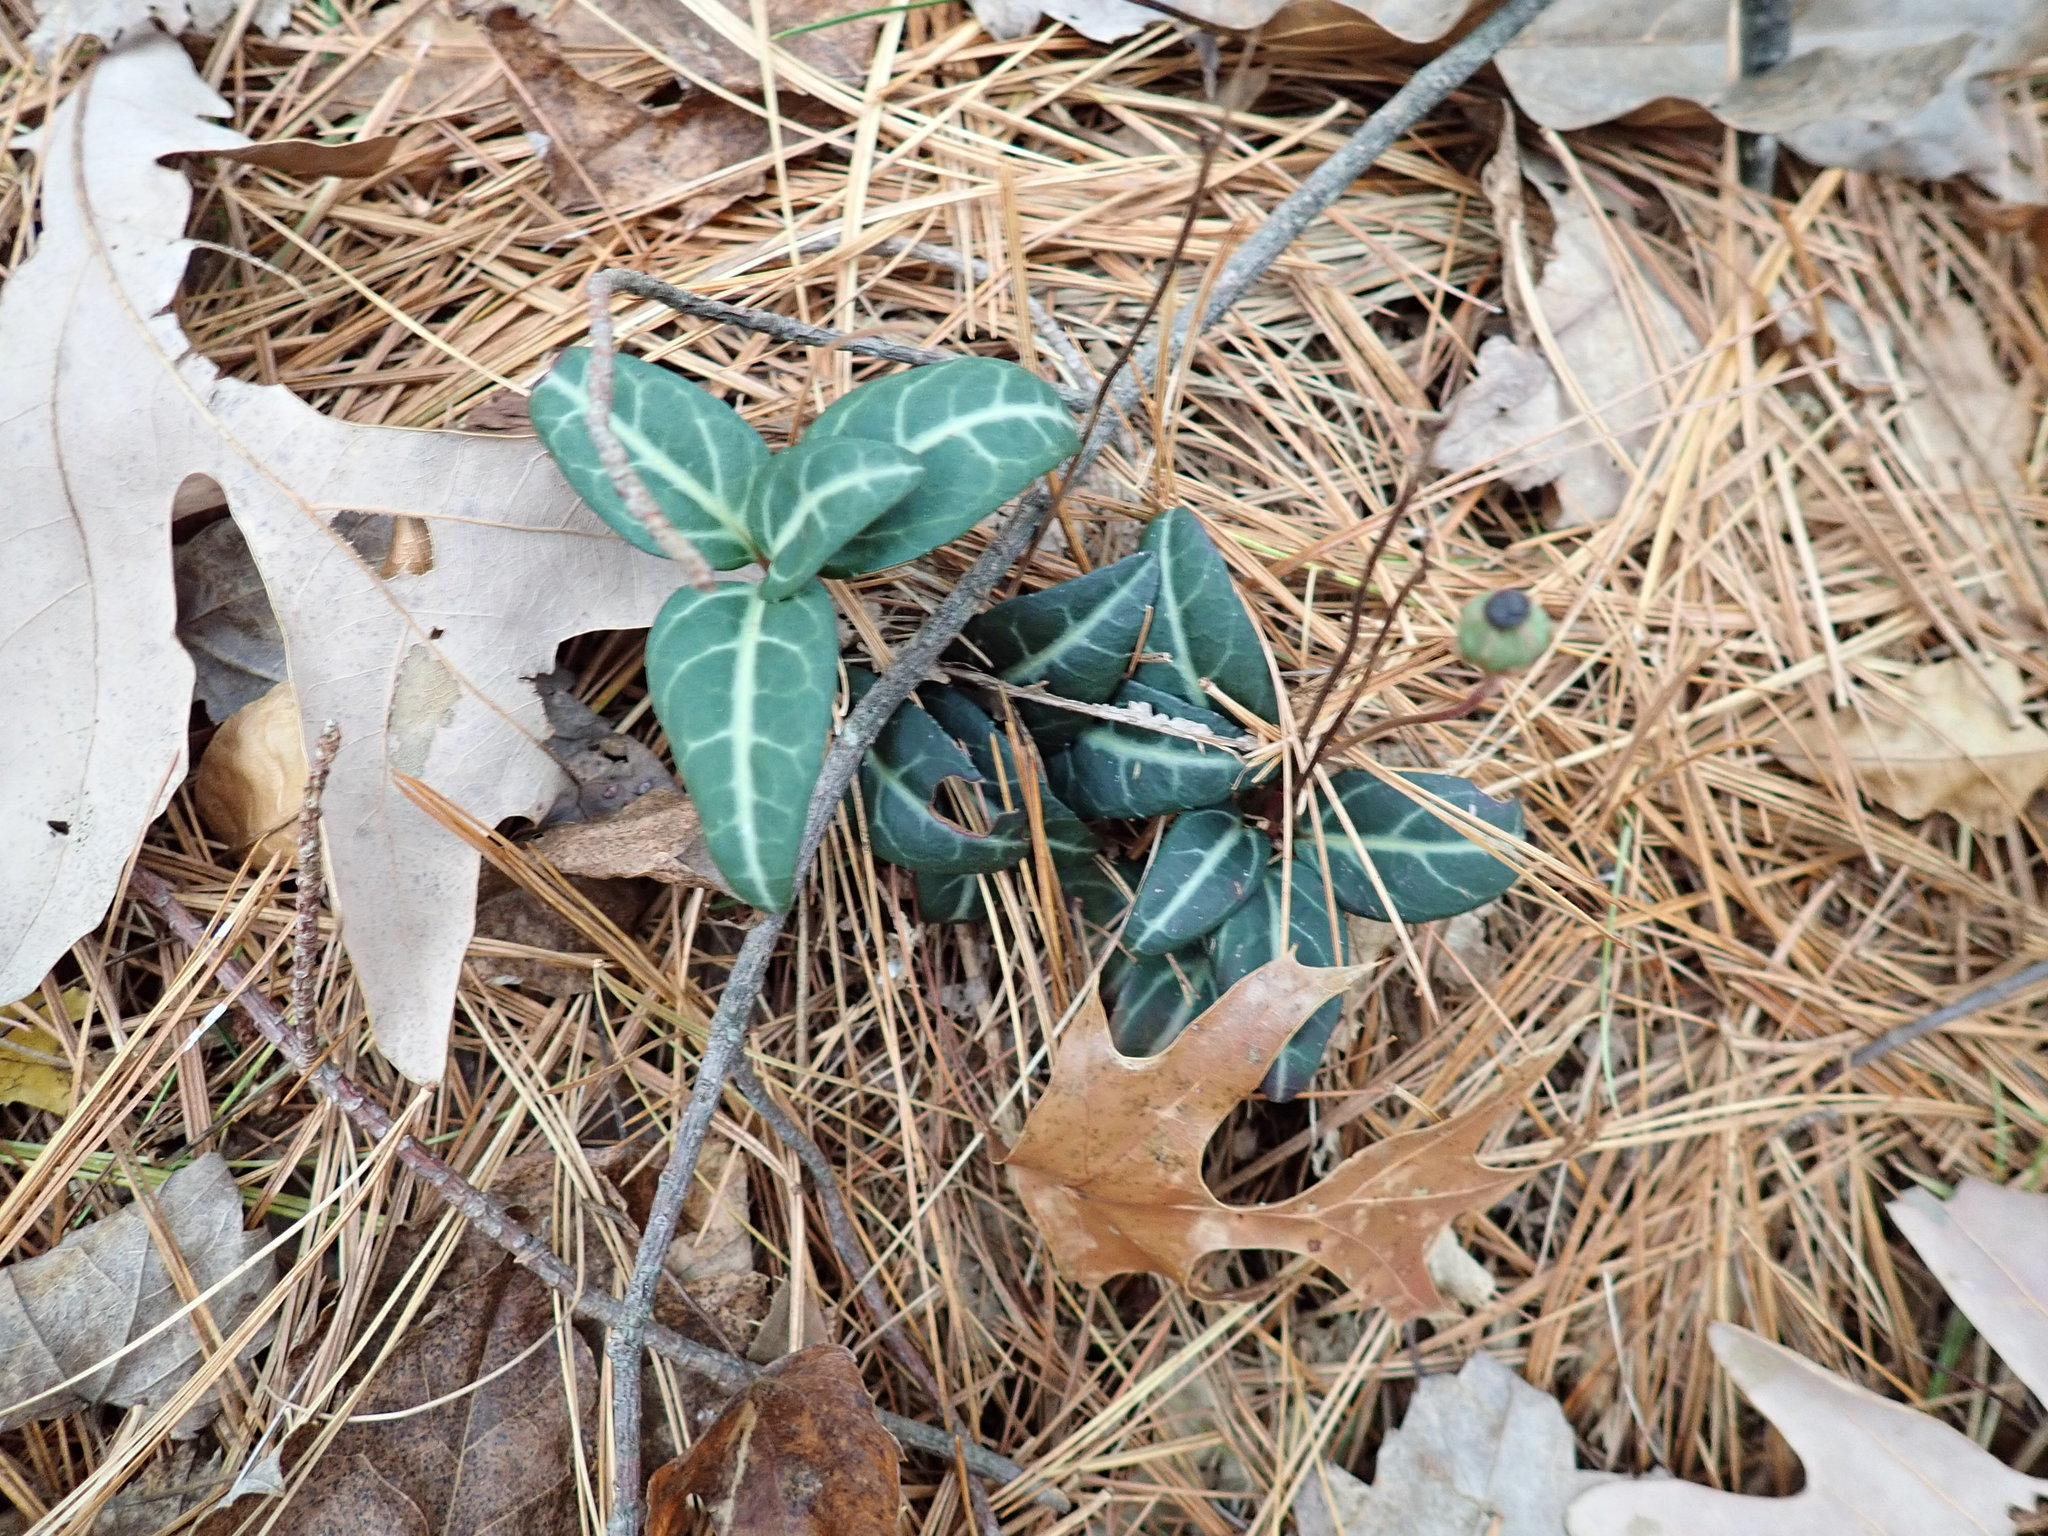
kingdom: Plantae
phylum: Tracheophyta
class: Magnoliopsida
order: Ericales
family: Ericaceae
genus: Chimaphila
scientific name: Chimaphila maculata
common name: Spotted pipsissewa
